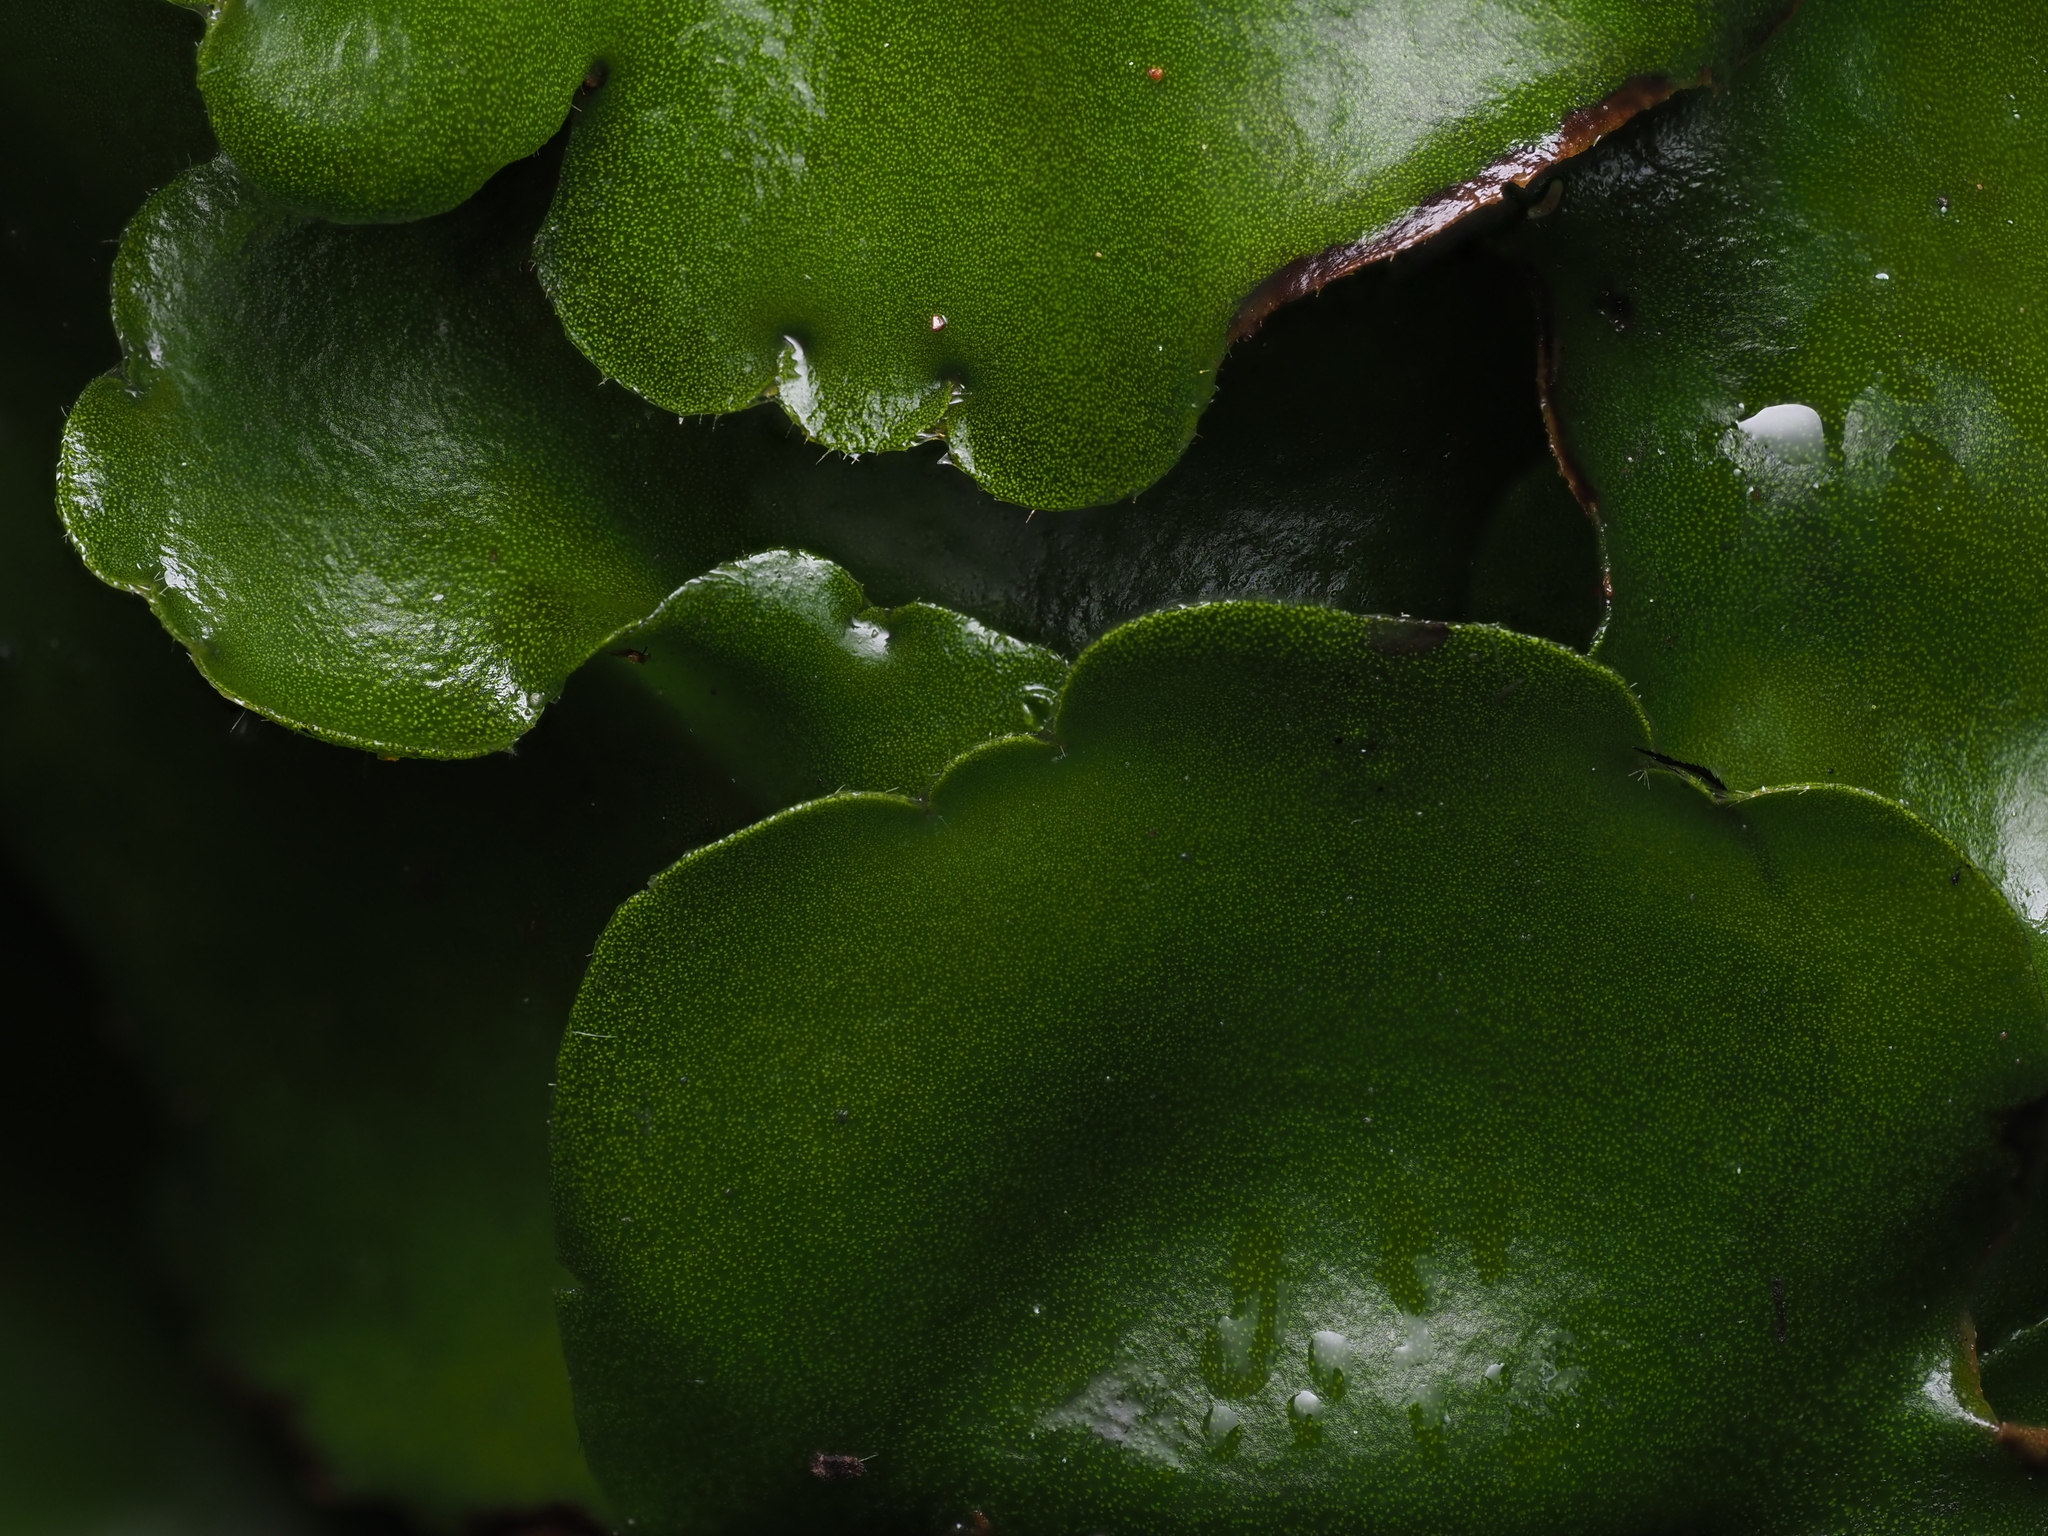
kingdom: Plantae
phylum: Marchantiophyta
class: Marchantiopsida
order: Marchantiales
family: Monocleaceae
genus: Monoclea
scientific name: Monoclea forsteri
